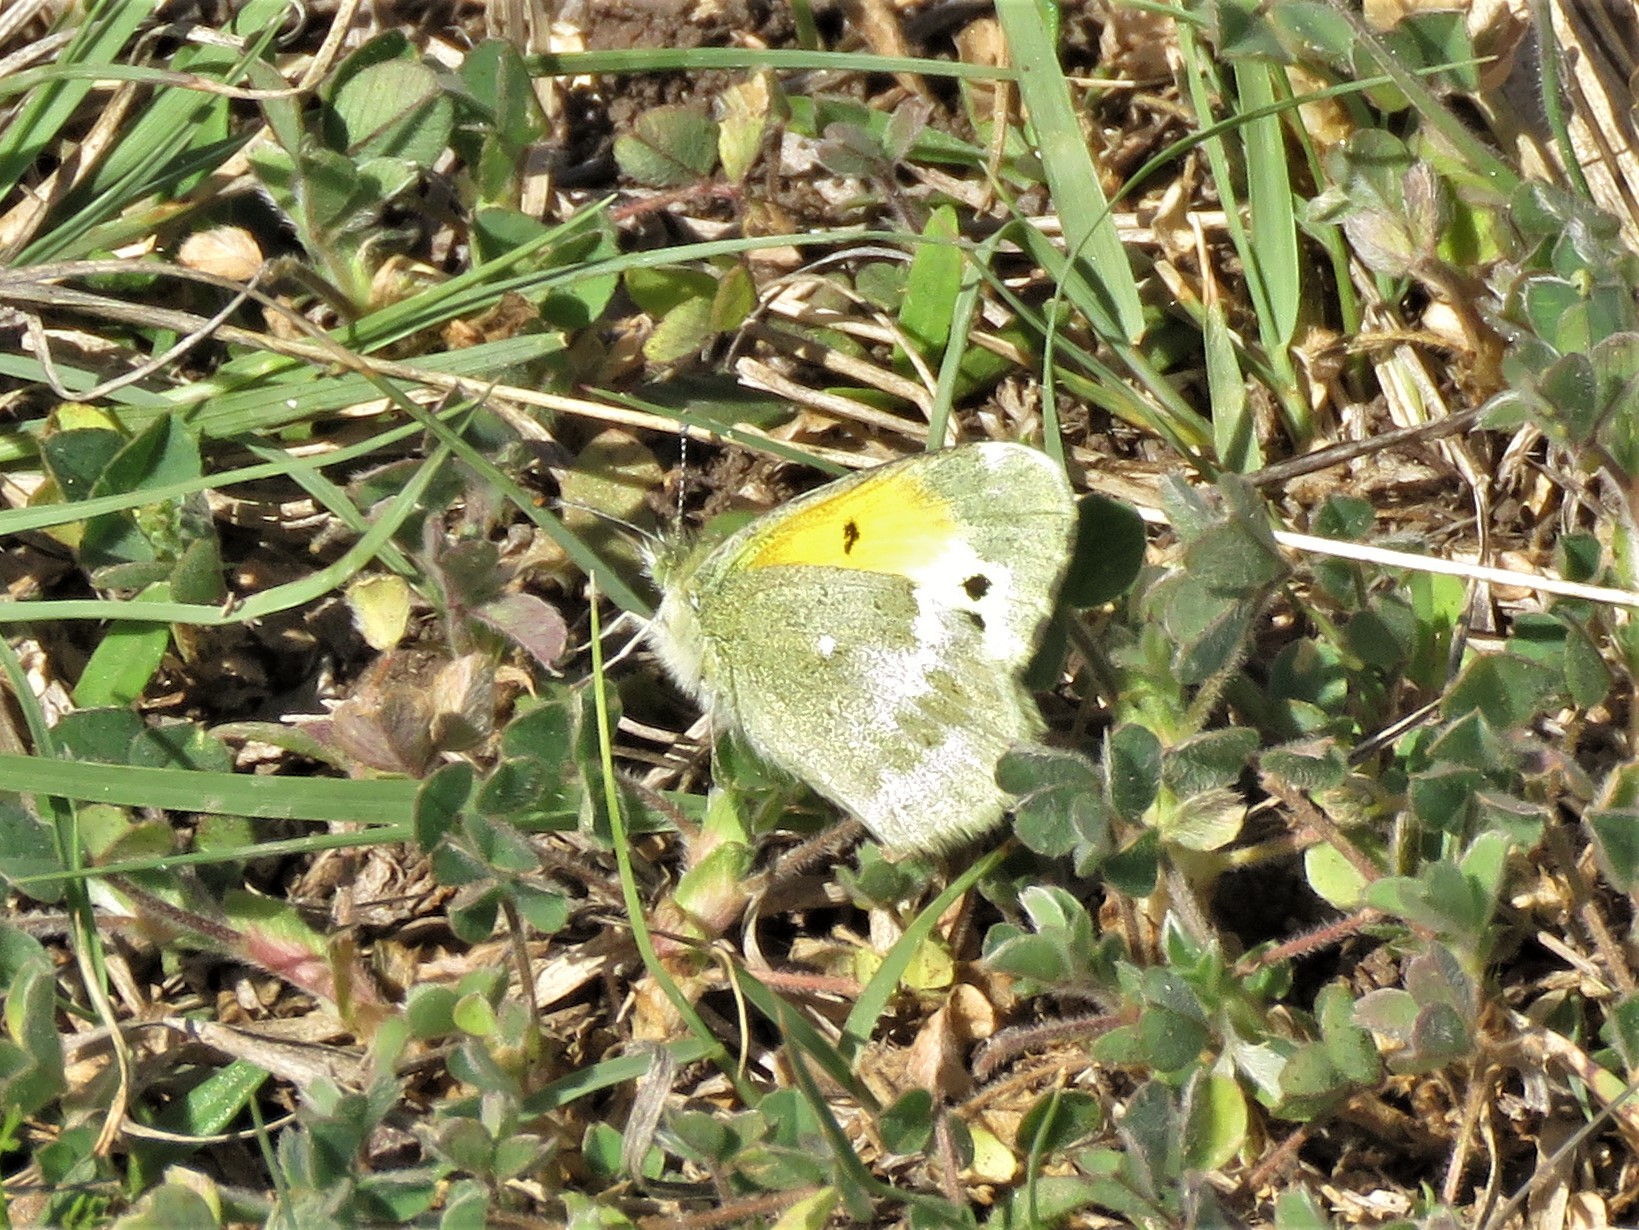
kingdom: Animalia
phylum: Arthropoda
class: Insecta
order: Lepidoptera
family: Pieridae
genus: Nathalis
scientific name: Nathalis iole
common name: Dainty sulphur
